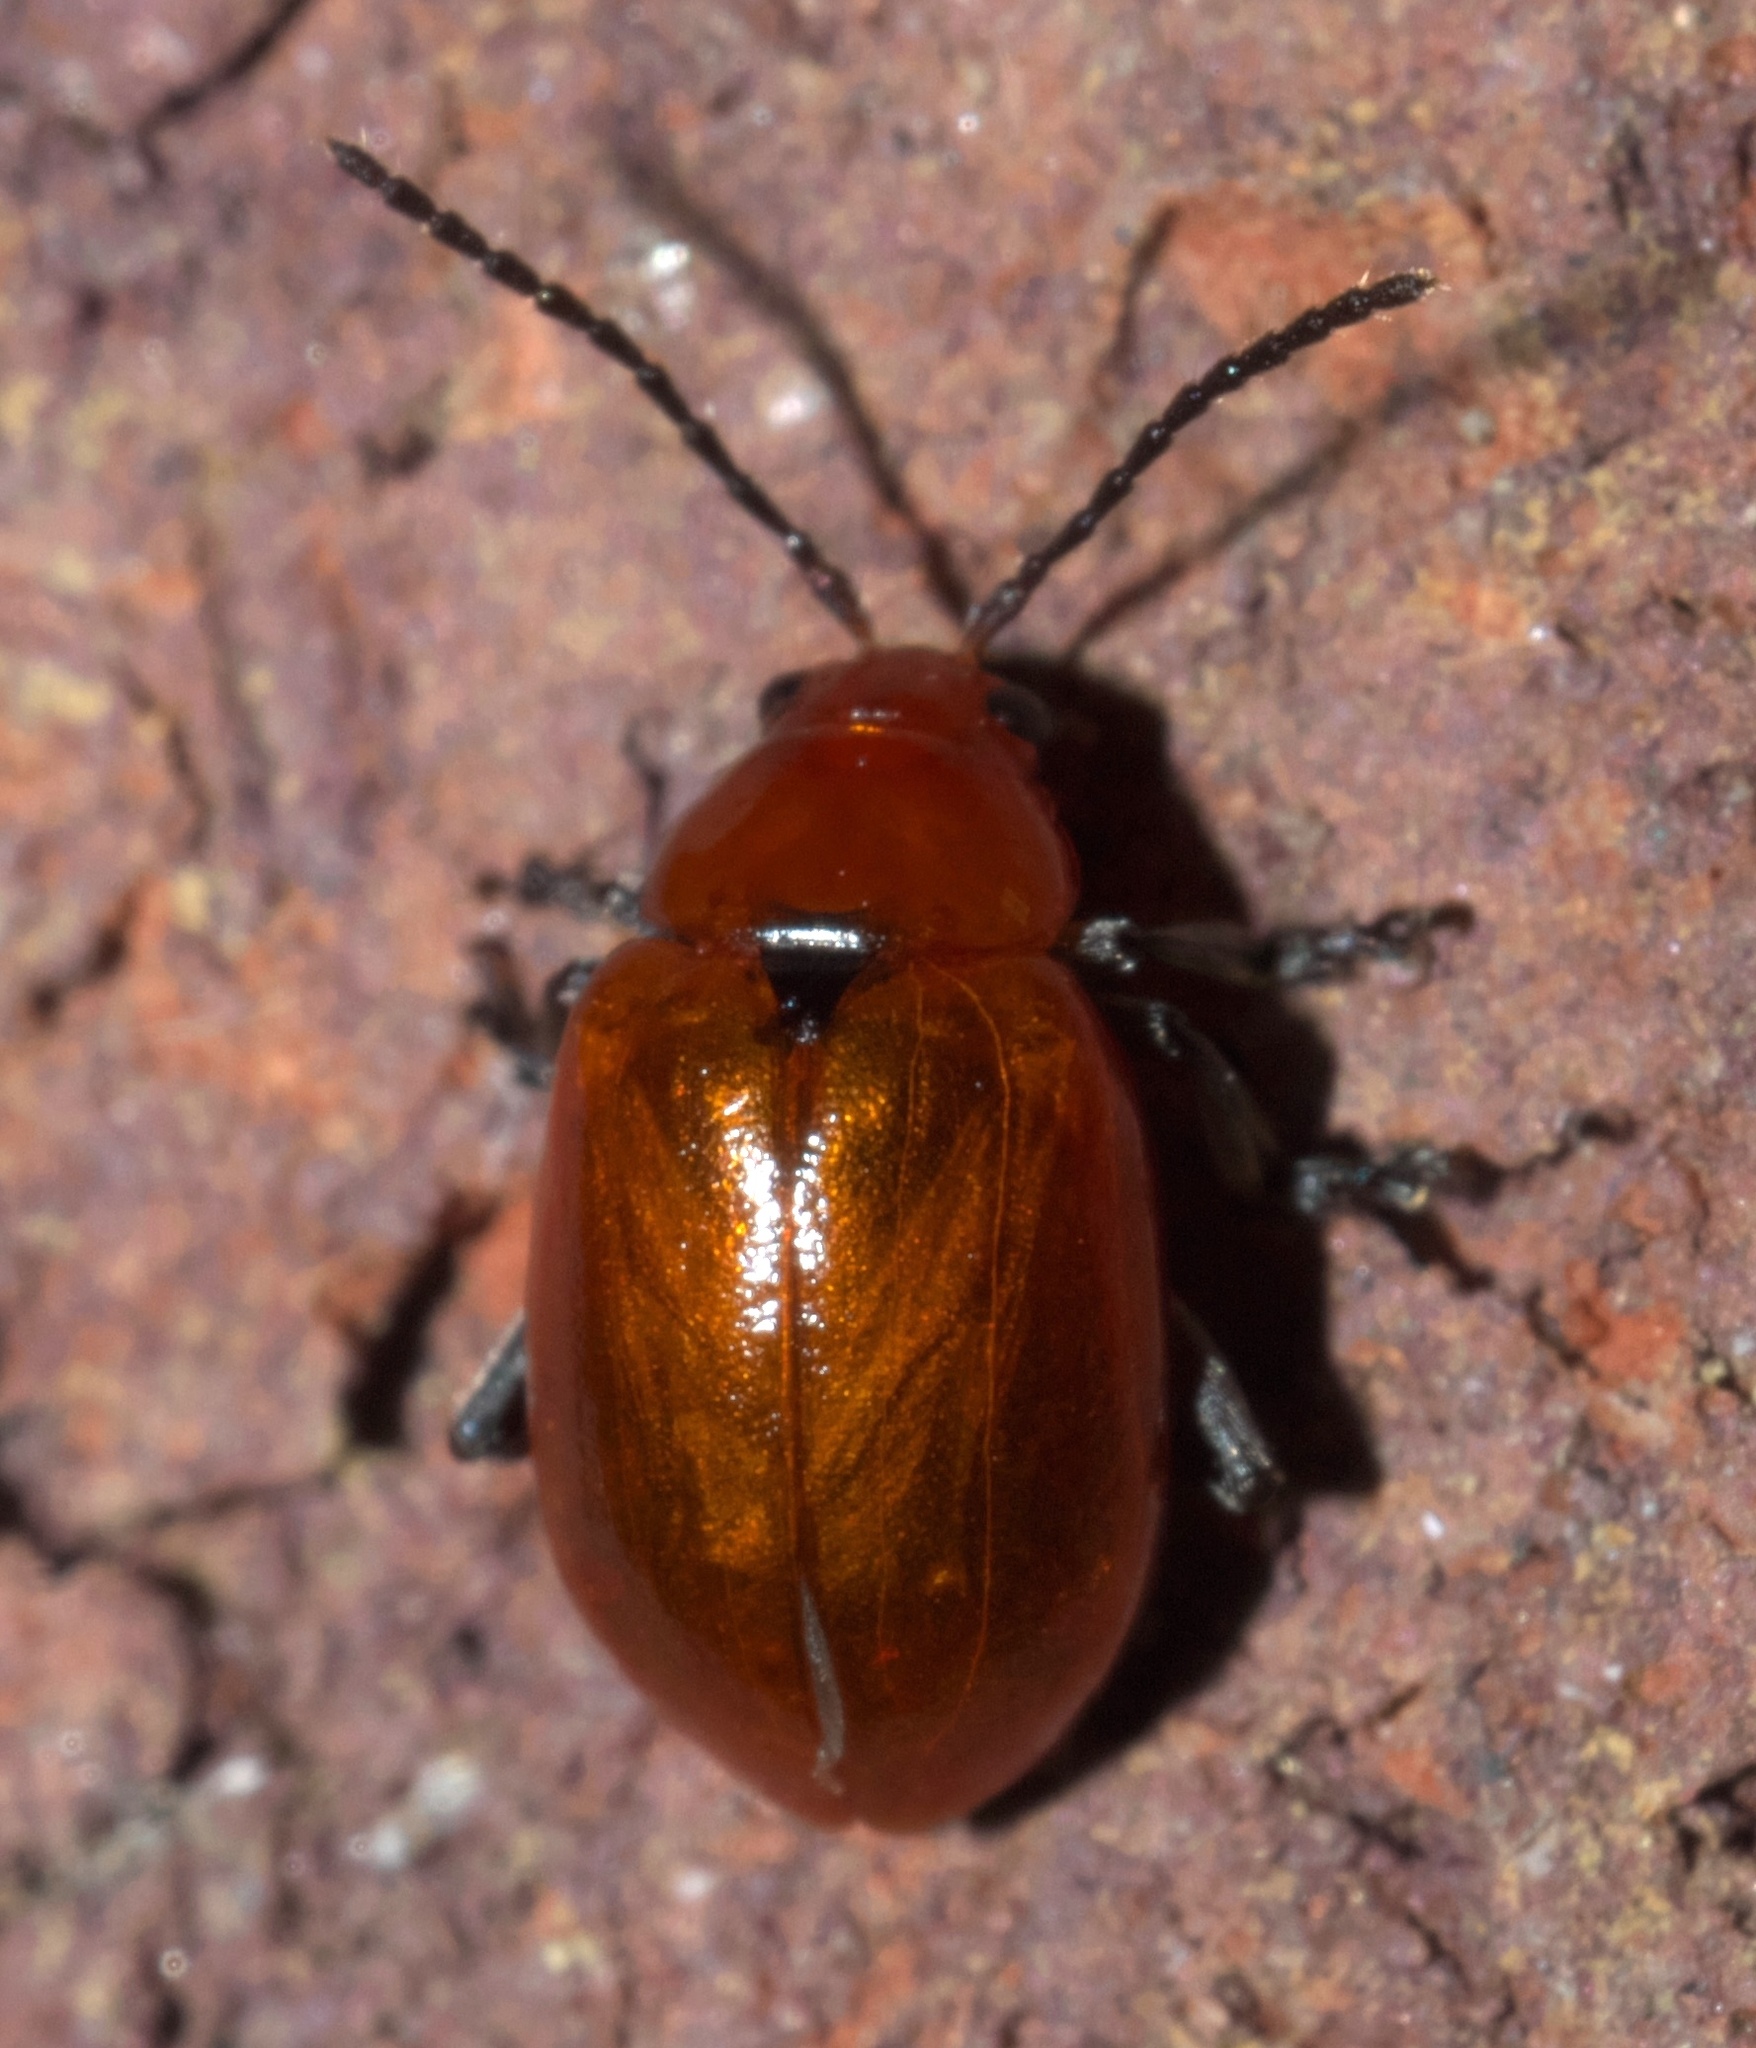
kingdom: Animalia
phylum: Arthropoda
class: Insecta
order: Coleoptera
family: Chrysomelidae
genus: Strabala
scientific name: Strabala rufa
